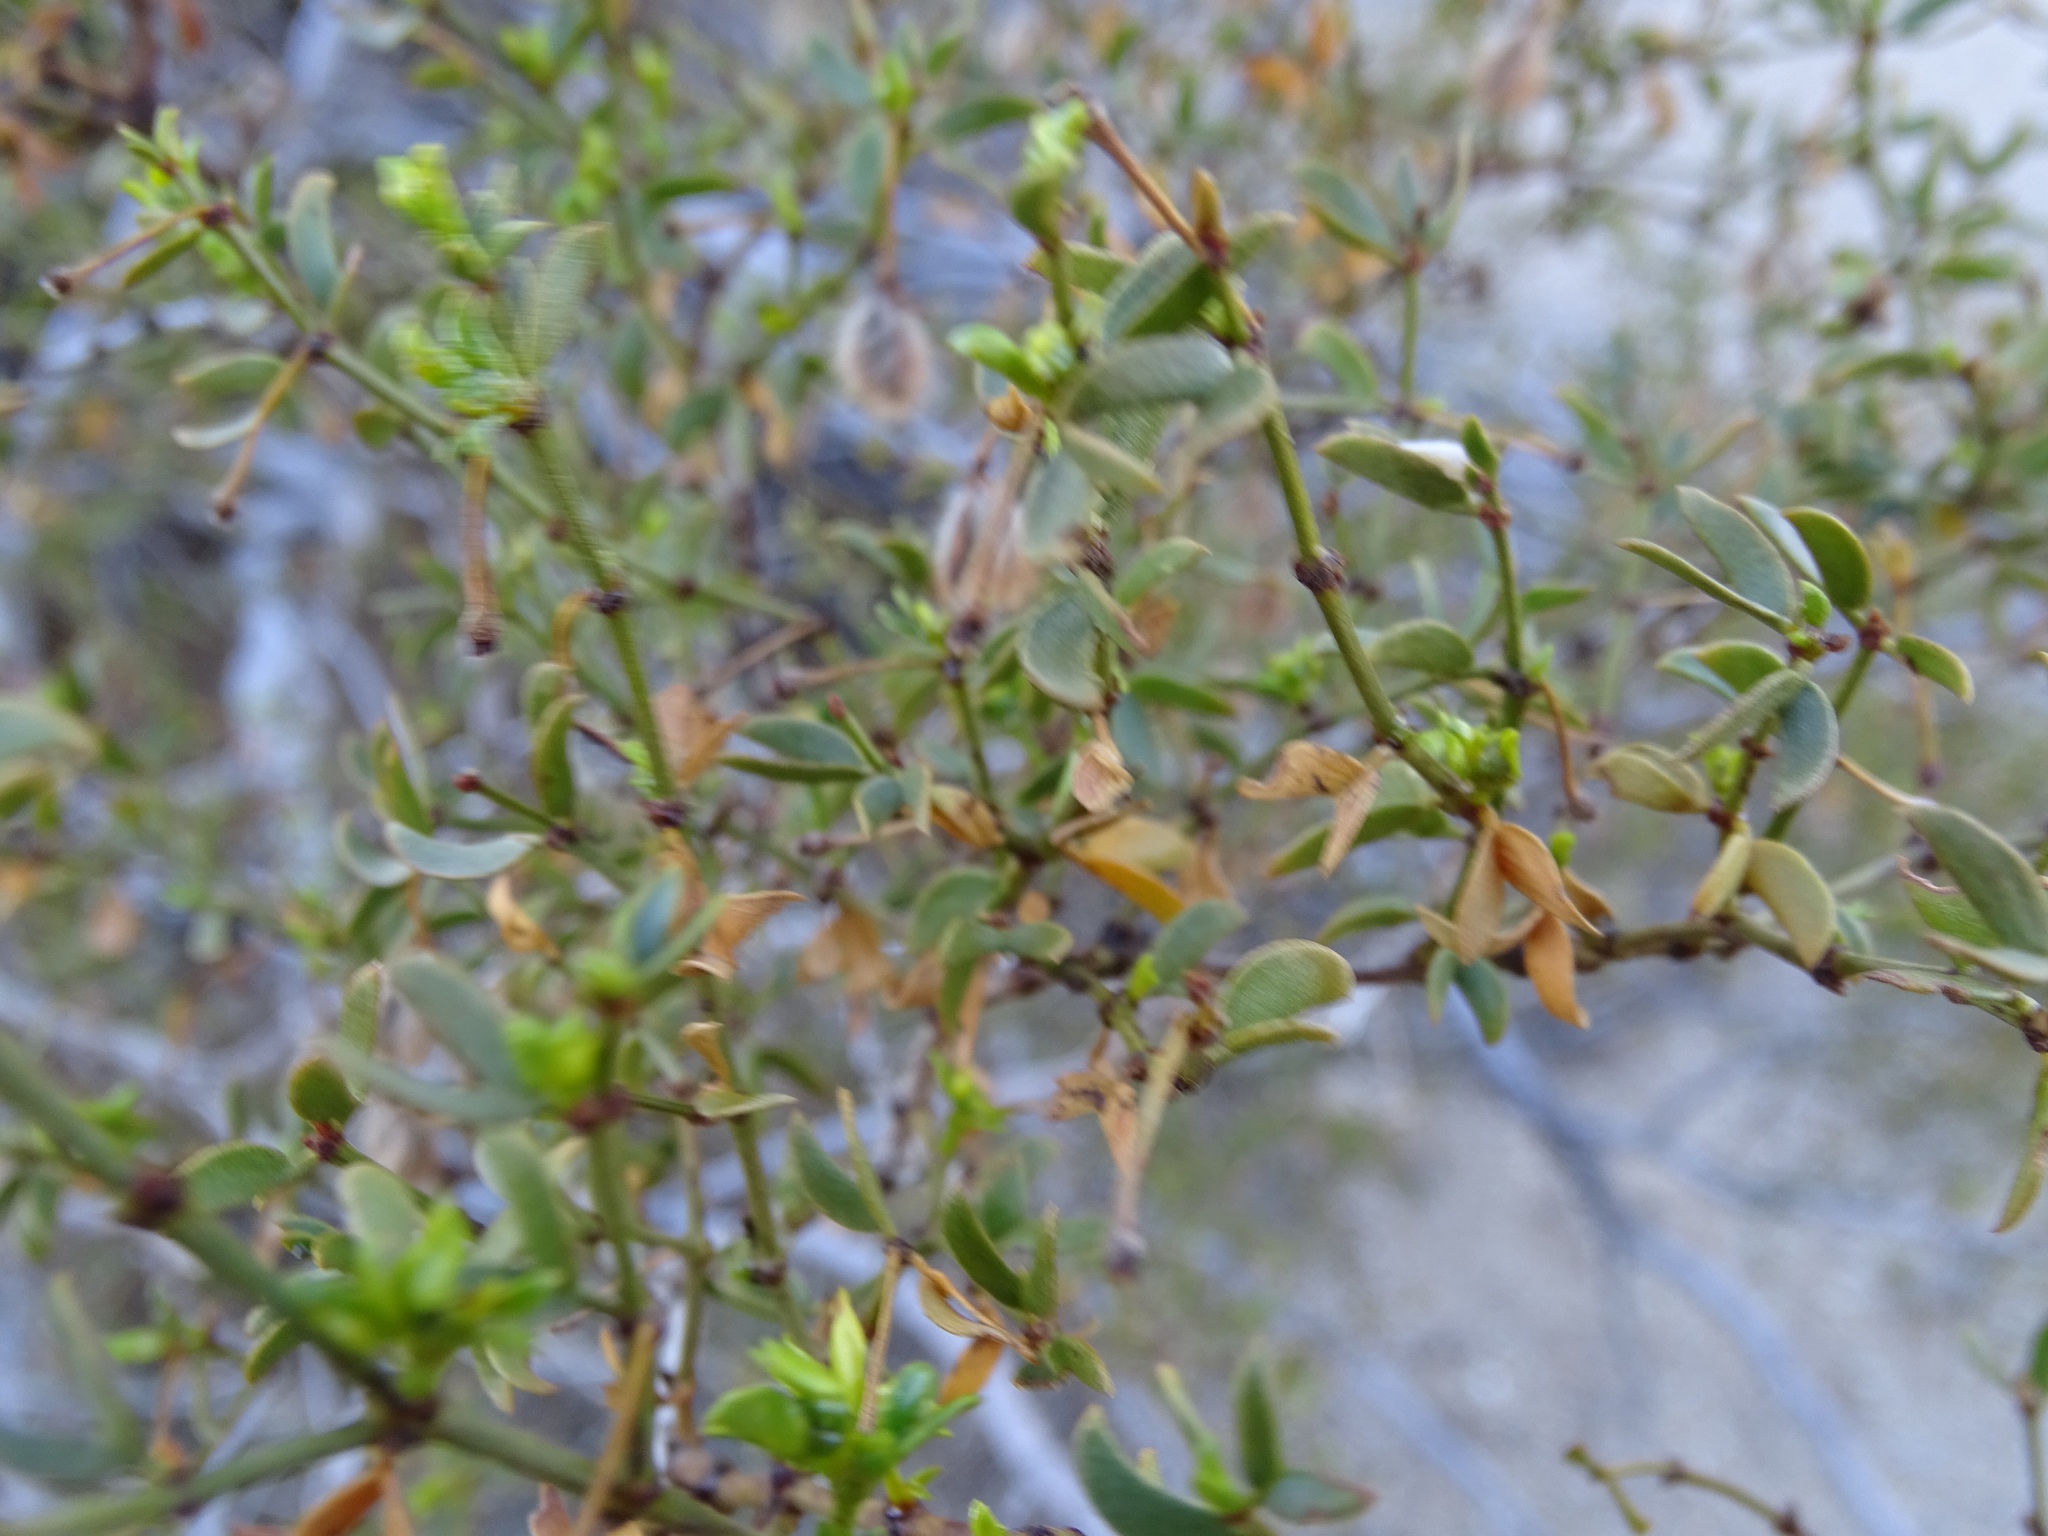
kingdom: Plantae
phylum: Tracheophyta
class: Magnoliopsida
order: Zygophyllales
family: Zygophyllaceae
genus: Larrea
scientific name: Larrea tridentata
